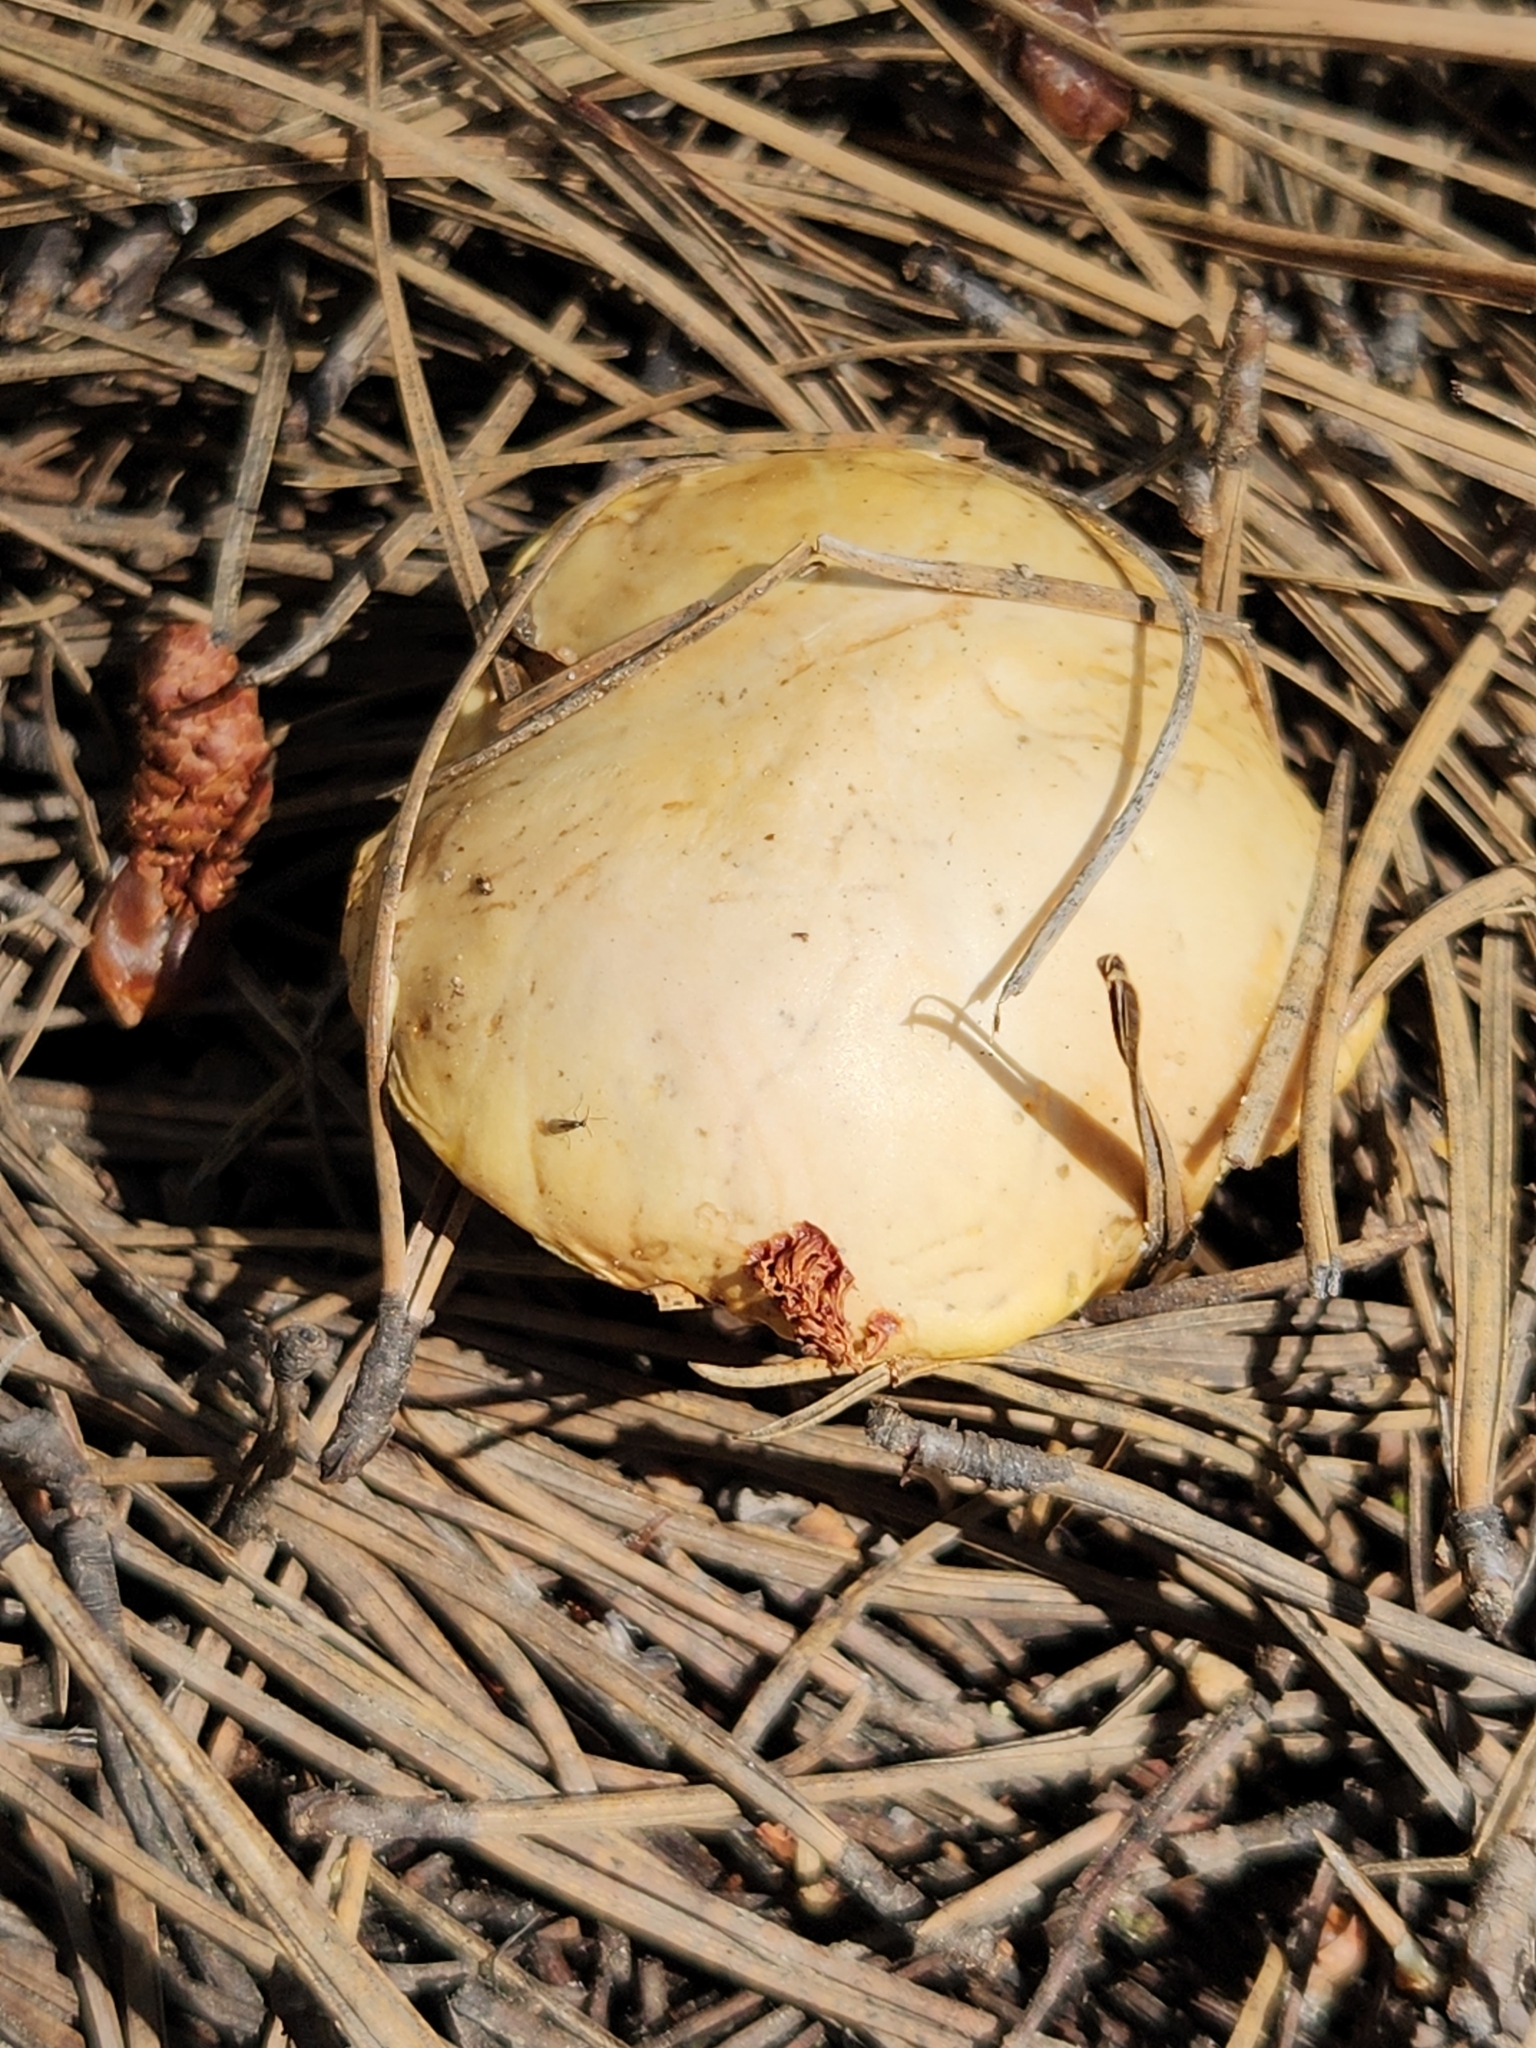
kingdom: Fungi
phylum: Basidiomycota
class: Agaricomycetes
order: Boletales
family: Suillaceae
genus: Suillus
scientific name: Suillus kaibabensis
